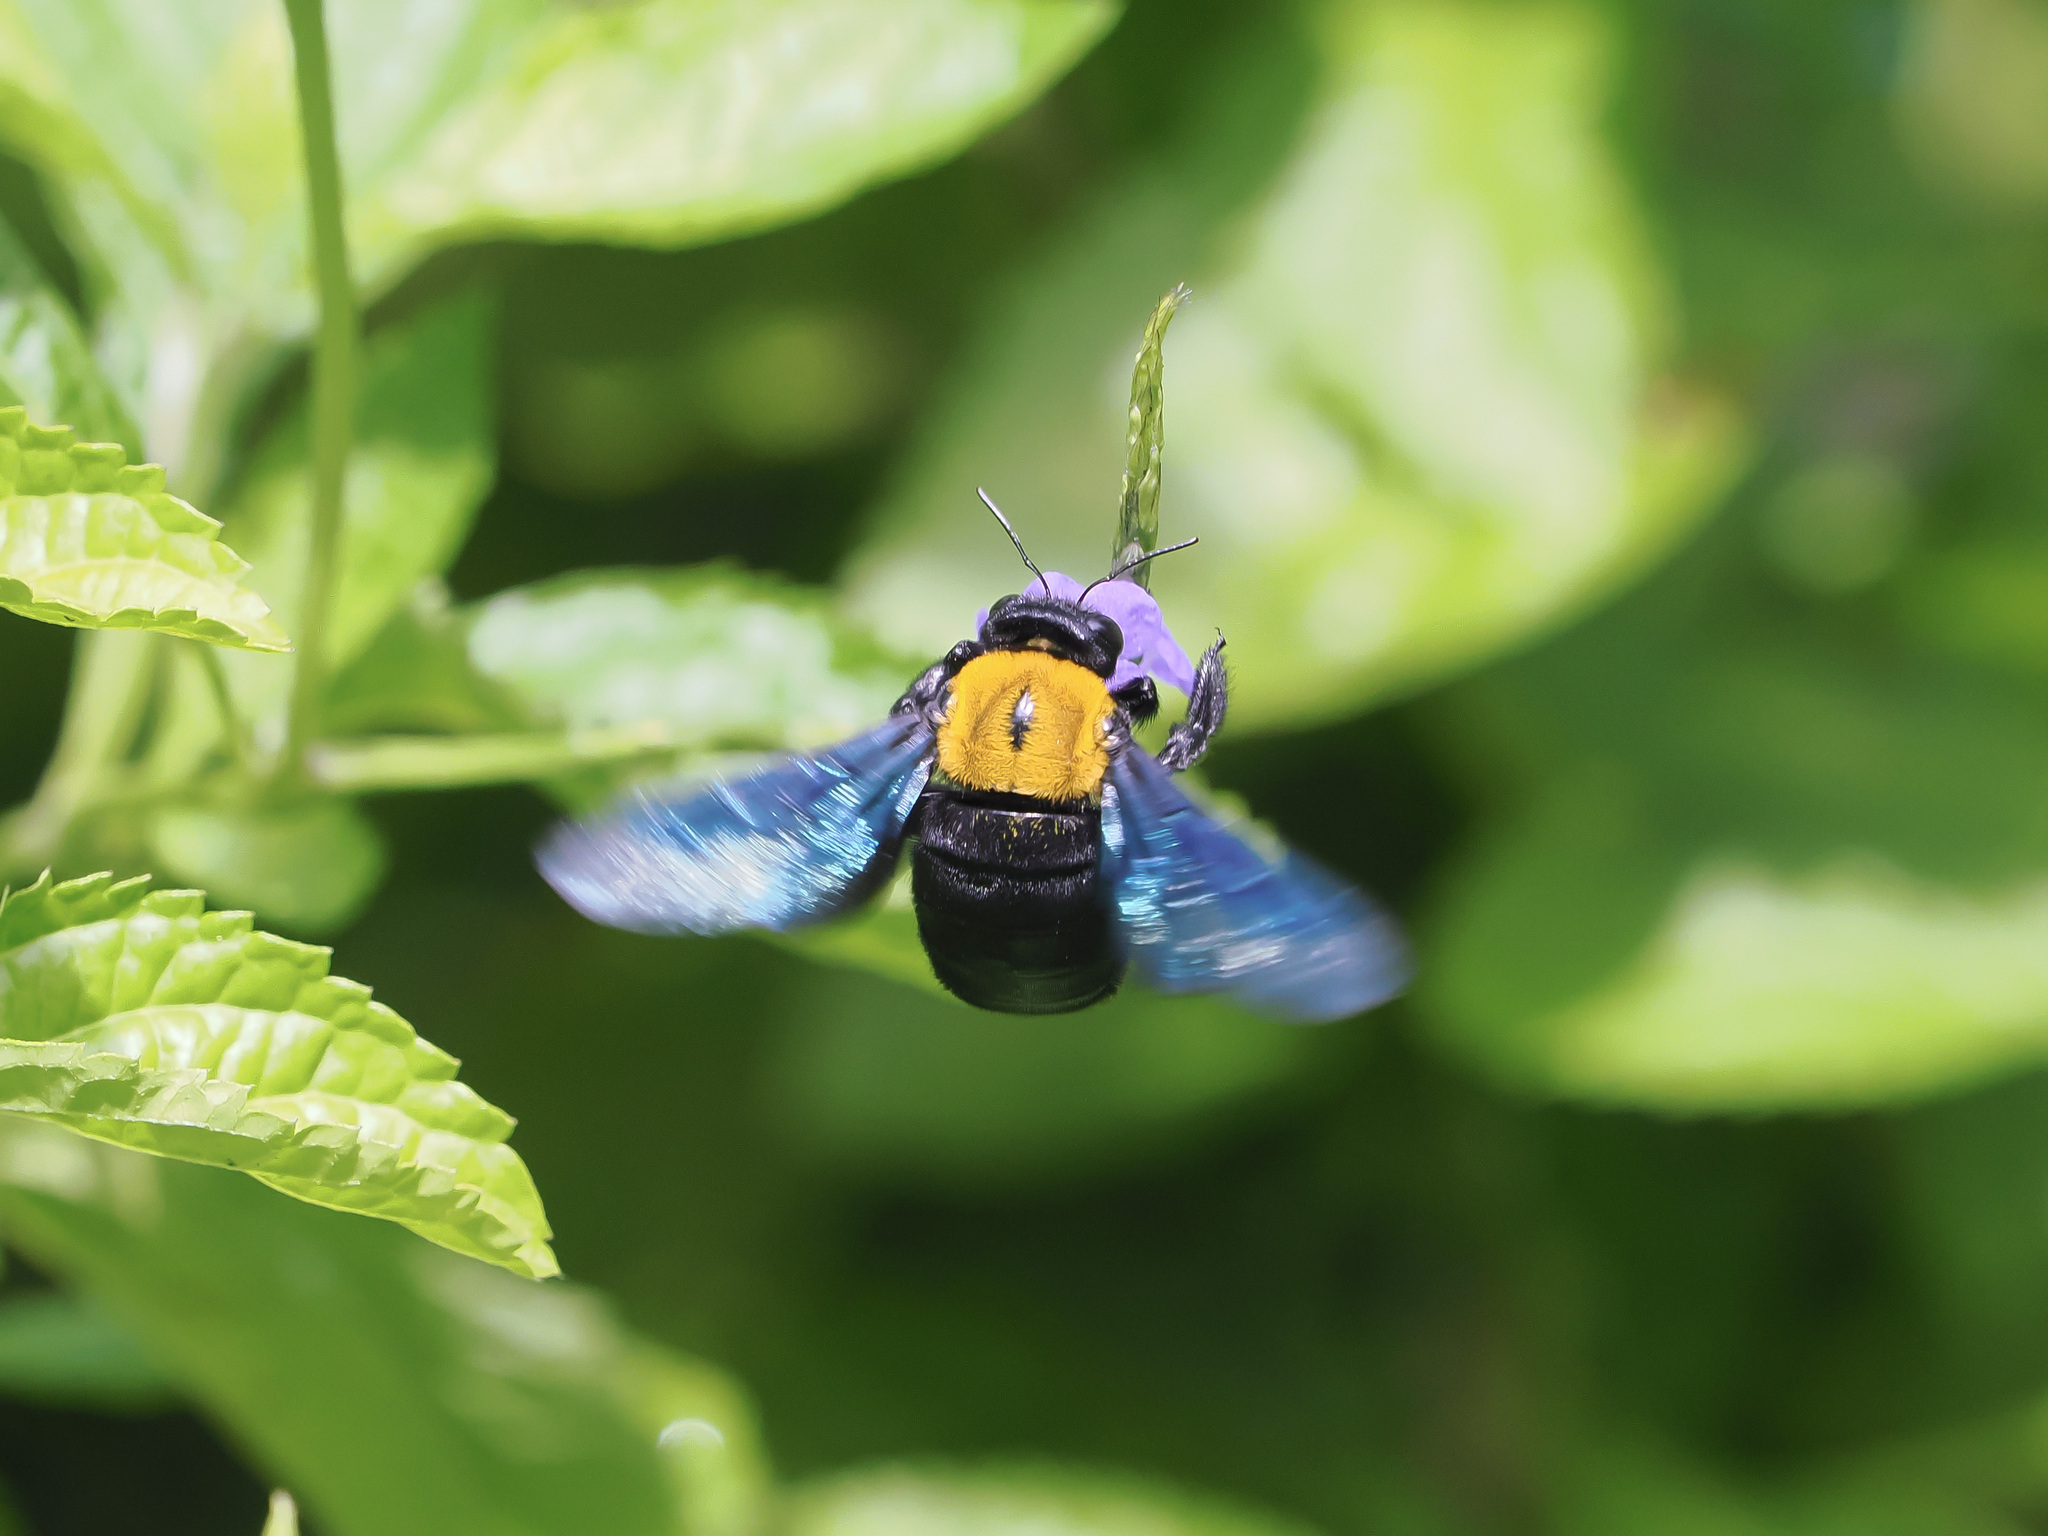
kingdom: Animalia
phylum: Arthropoda
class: Insecta
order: Hymenoptera
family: Apidae
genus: Xylocopa
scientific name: Xylocopa aestuans
